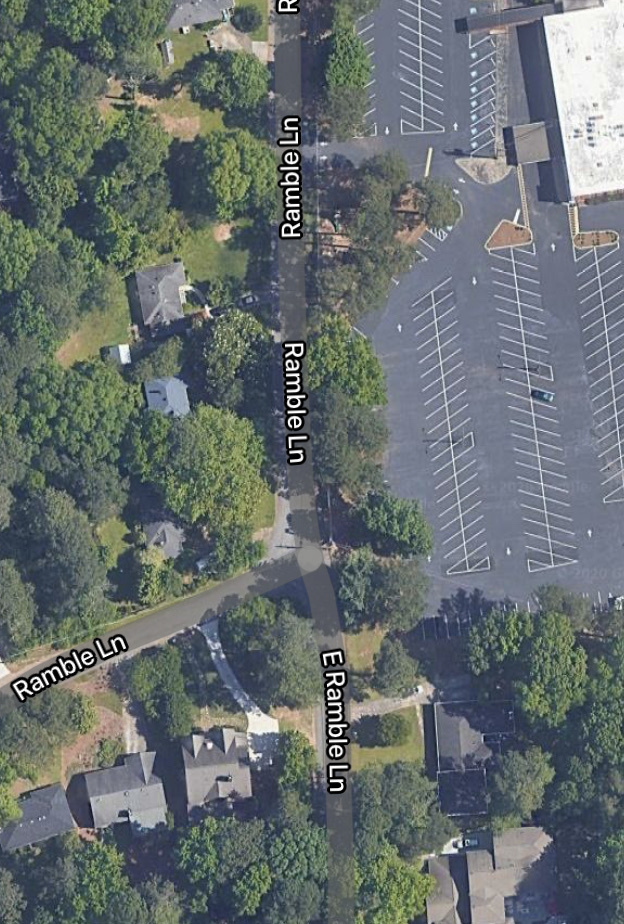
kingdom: Animalia
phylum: Chordata
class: Aves
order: Passeriformes
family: Paridae
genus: Poecile
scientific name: Poecile carolinensis
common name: Carolina chickadee
